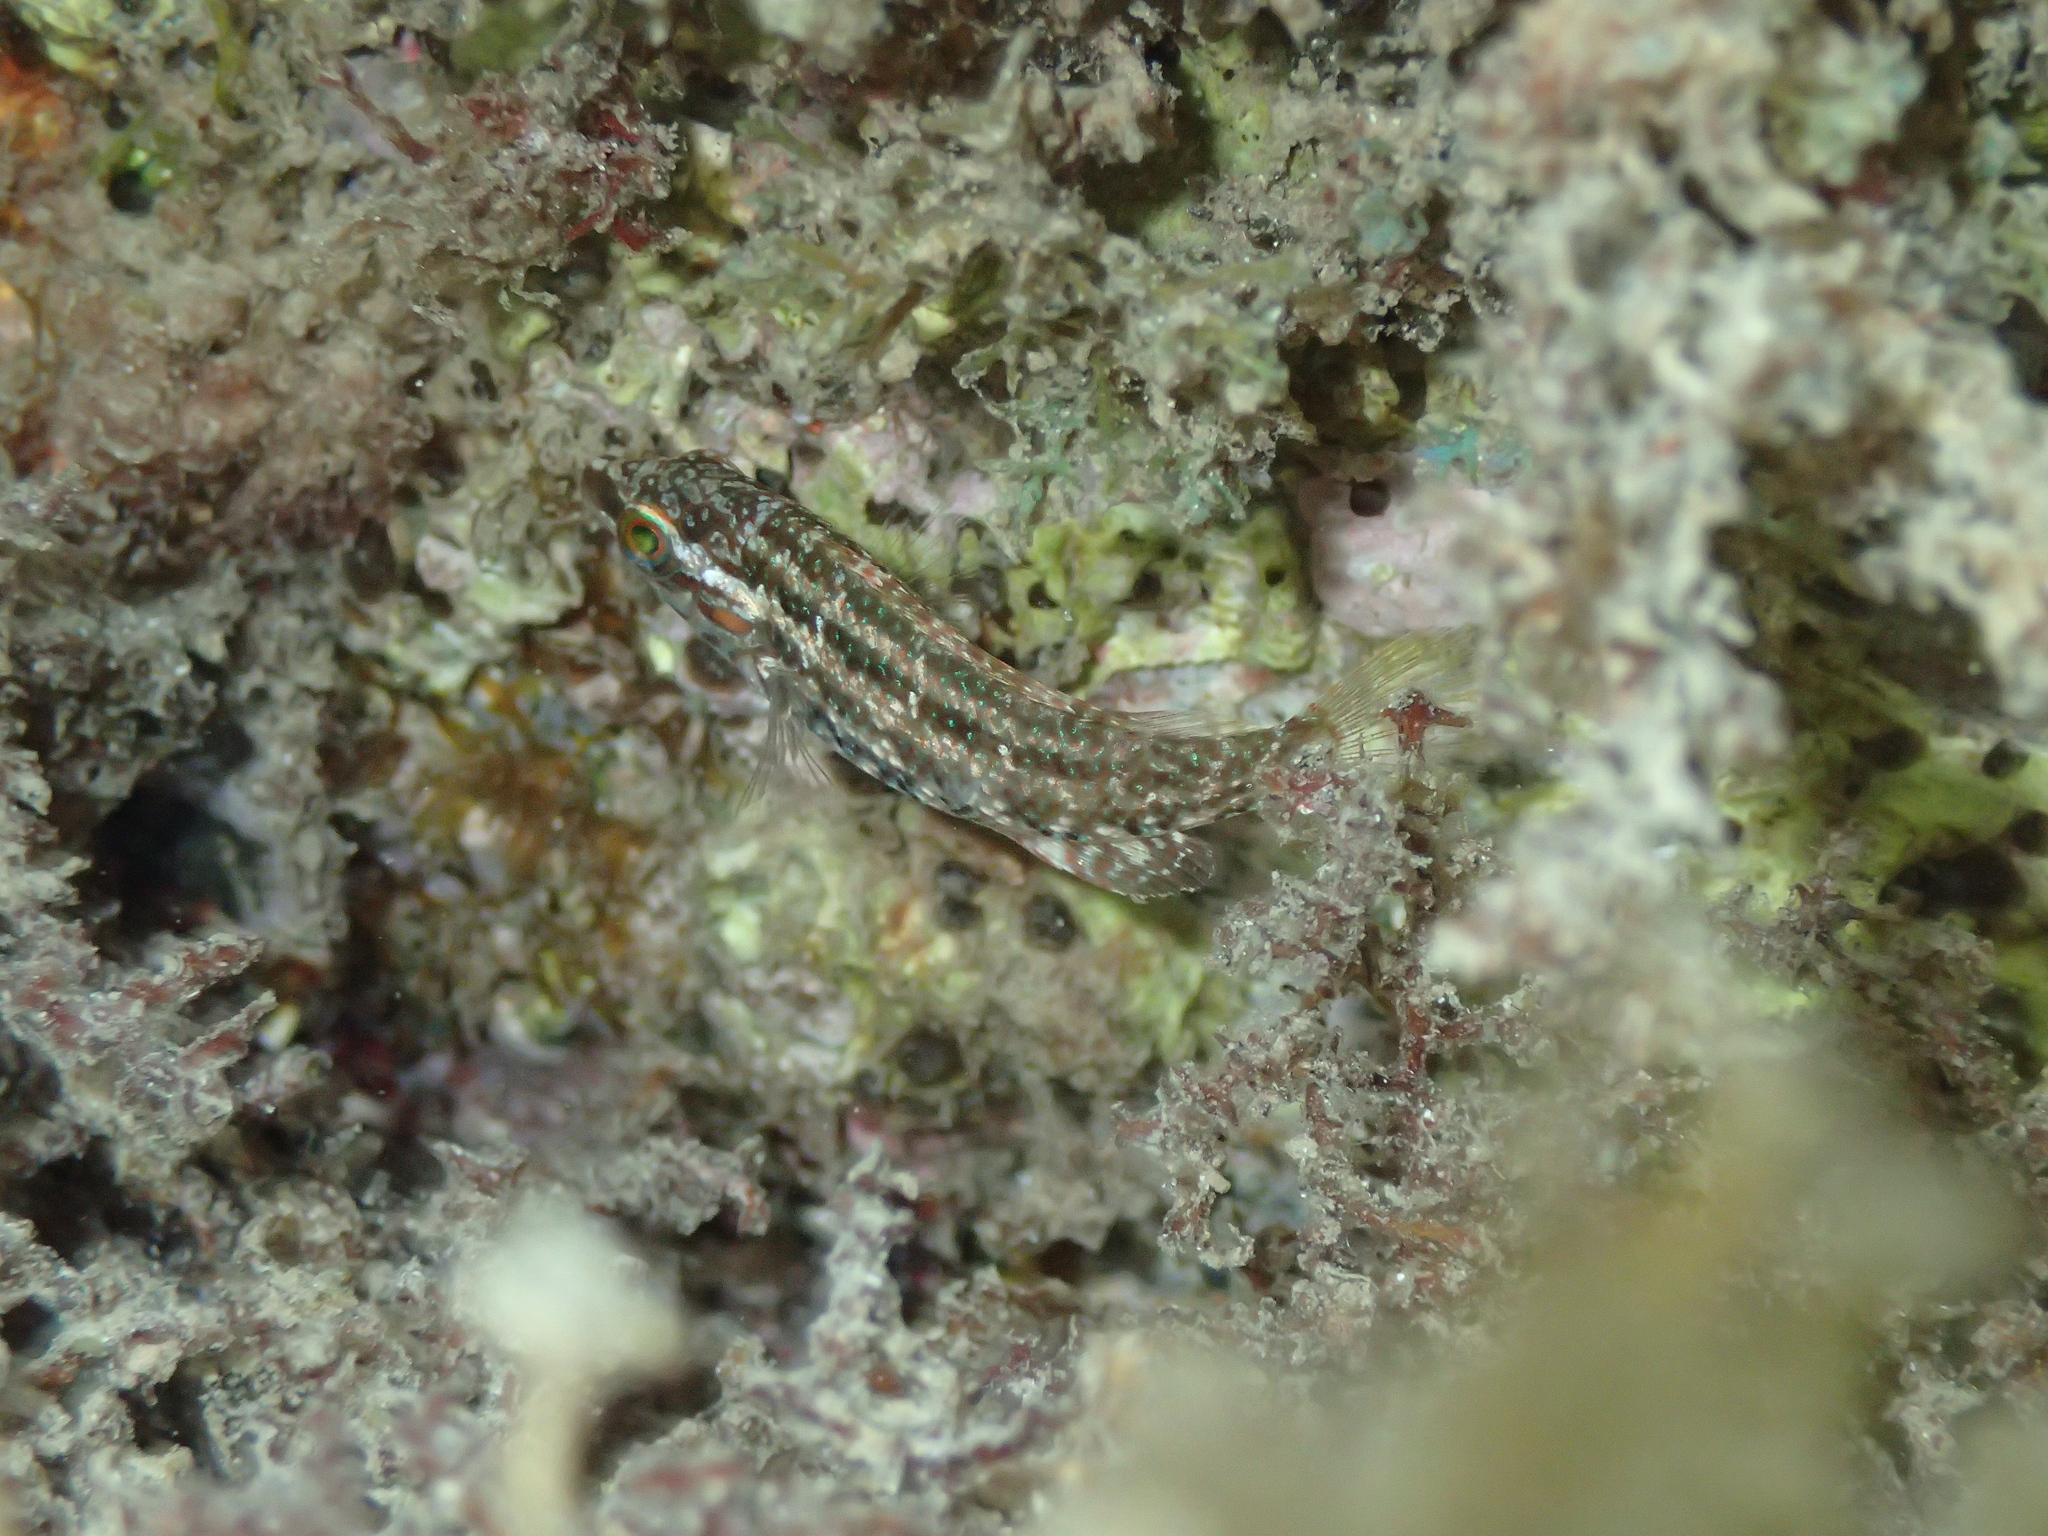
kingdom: Animalia
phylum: Chordata
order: Perciformes
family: Labridae
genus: Symphodus
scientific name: Symphodus roissali
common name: Five-spotted wrasse
